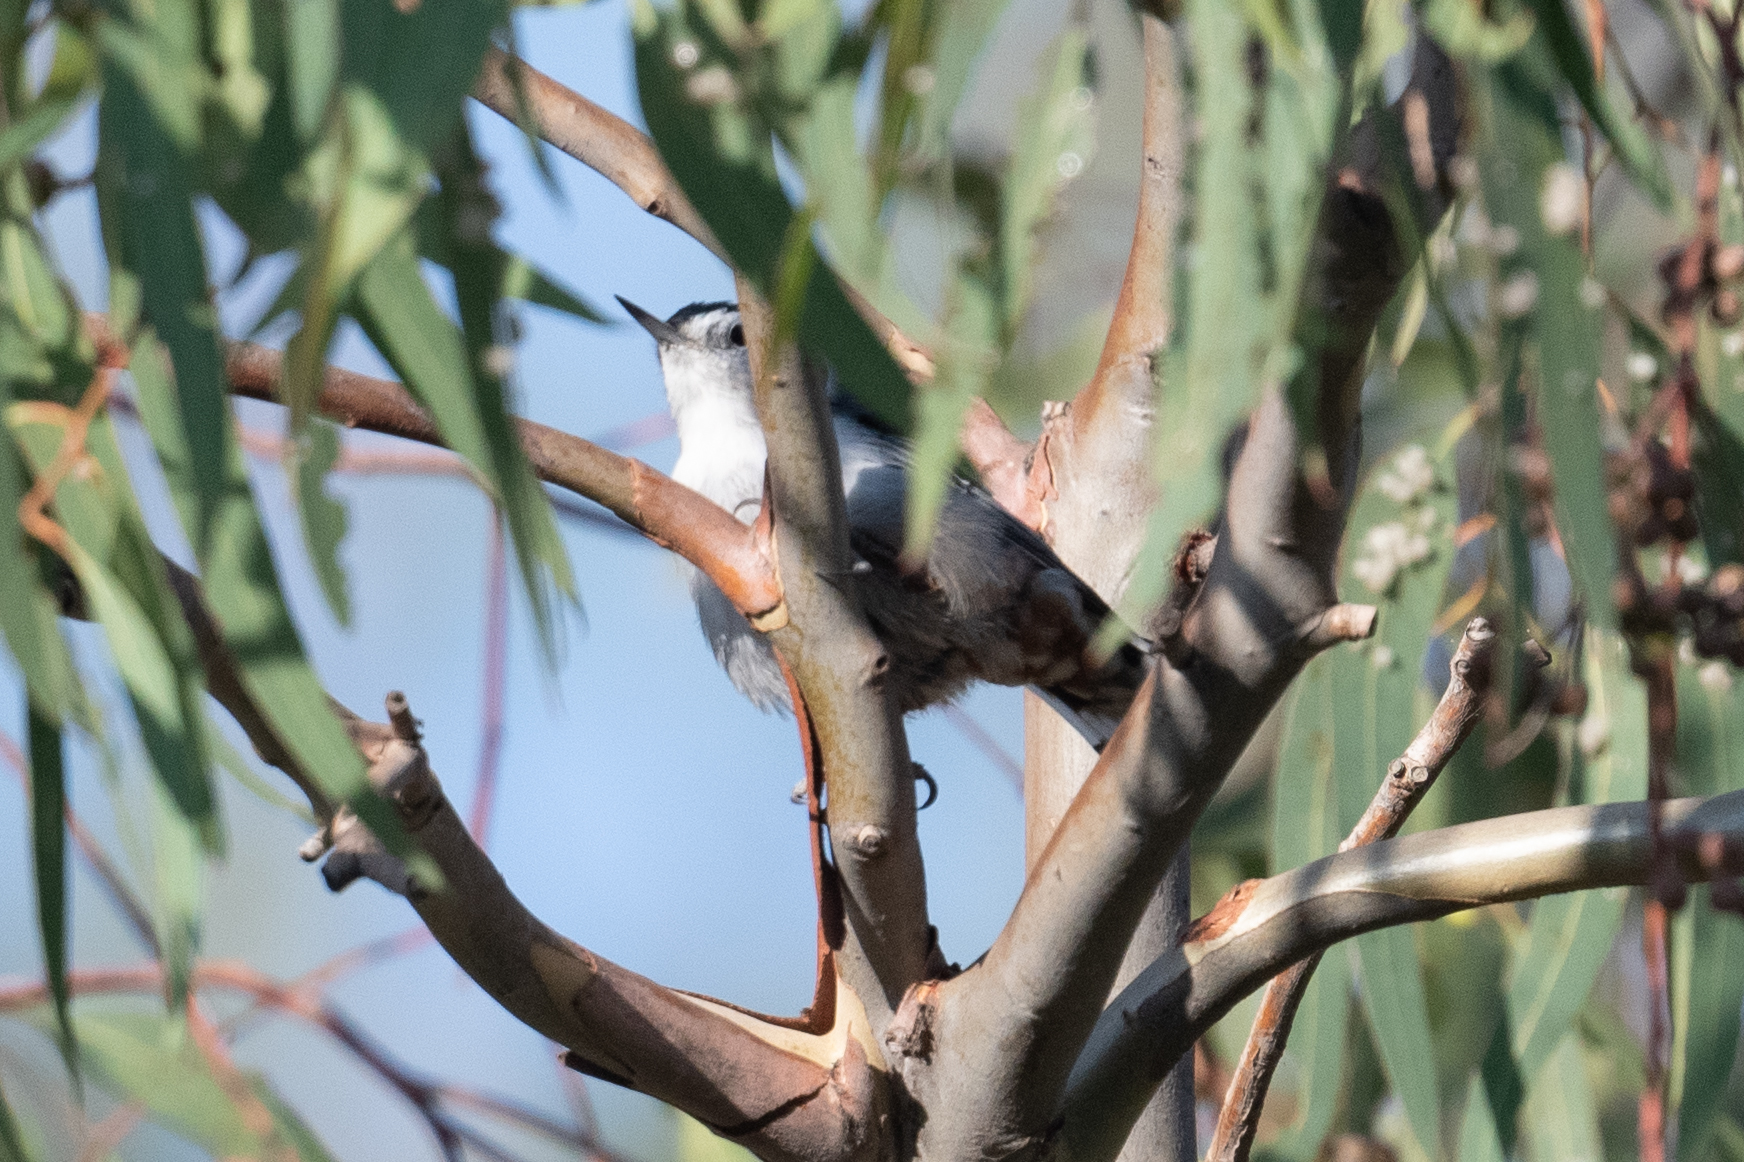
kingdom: Animalia
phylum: Chordata
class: Aves
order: Passeriformes
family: Sittidae
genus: Sitta
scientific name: Sitta carolinensis
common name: White-breasted nuthatch
